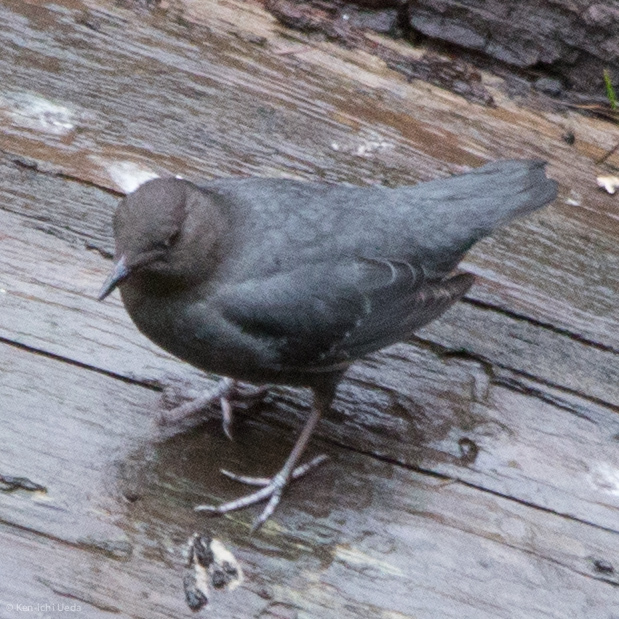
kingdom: Animalia
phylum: Chordata
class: Aves
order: Passeriformes
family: Cinclidae
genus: Cinclus
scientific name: Cinclus mexicanus
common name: American dipper
